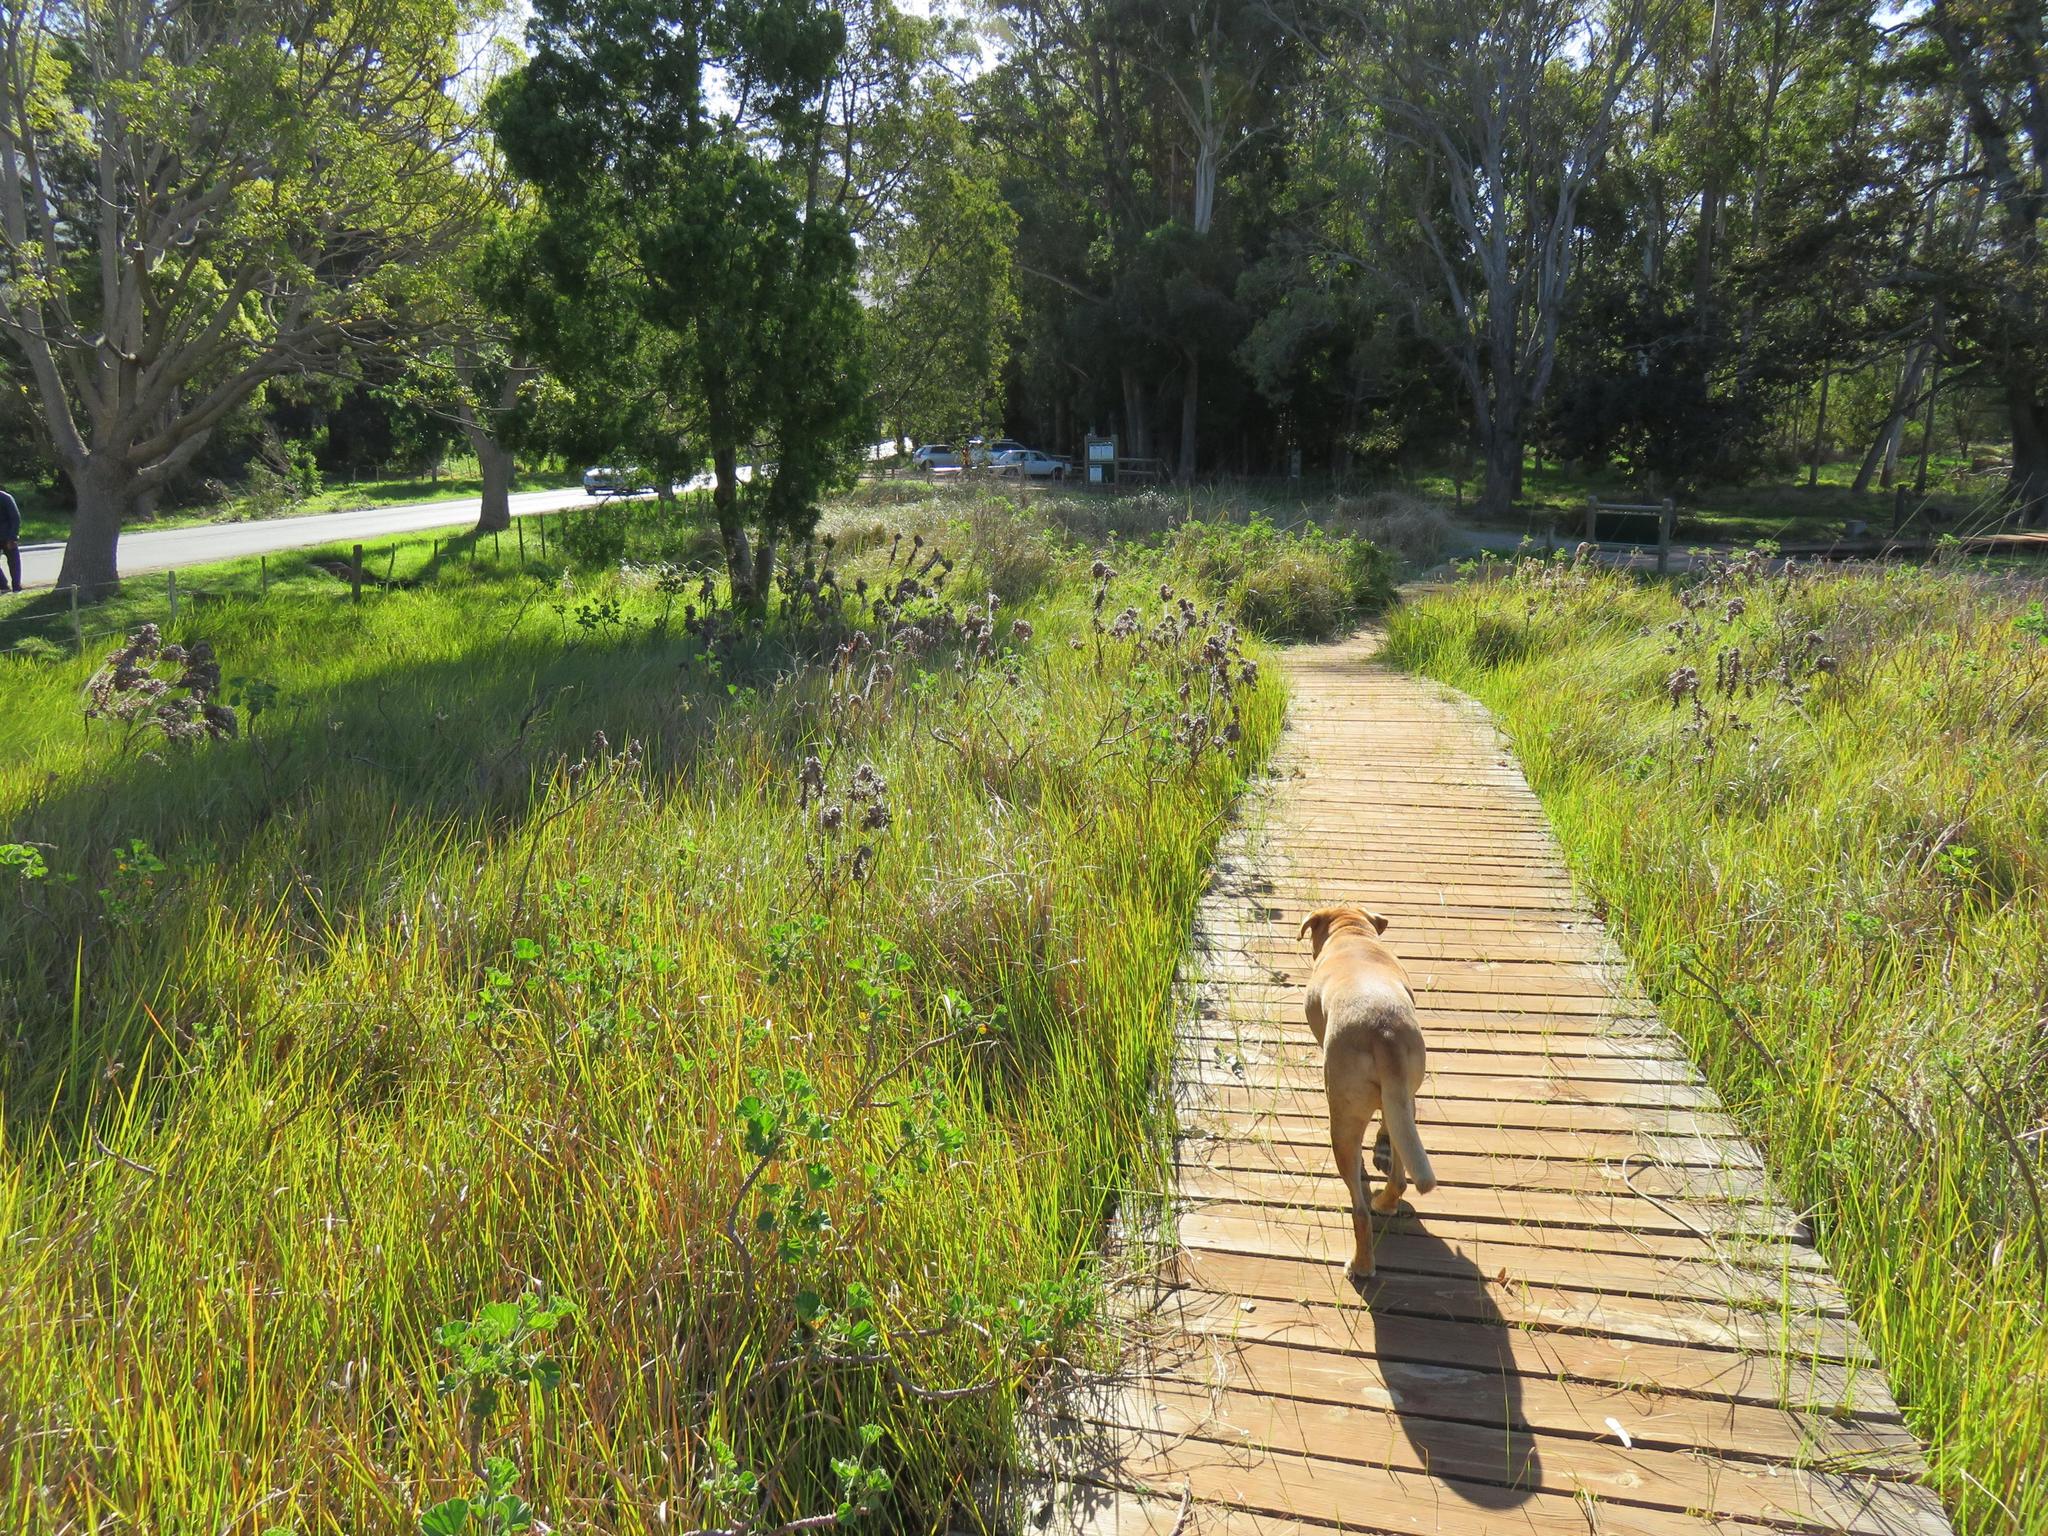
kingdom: Plantae
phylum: Tracheophyta
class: Magnoliopsida
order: Proteales
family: Proteaceae
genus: Mimetes
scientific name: Mimetes hirtus
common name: Marsh pagoda
